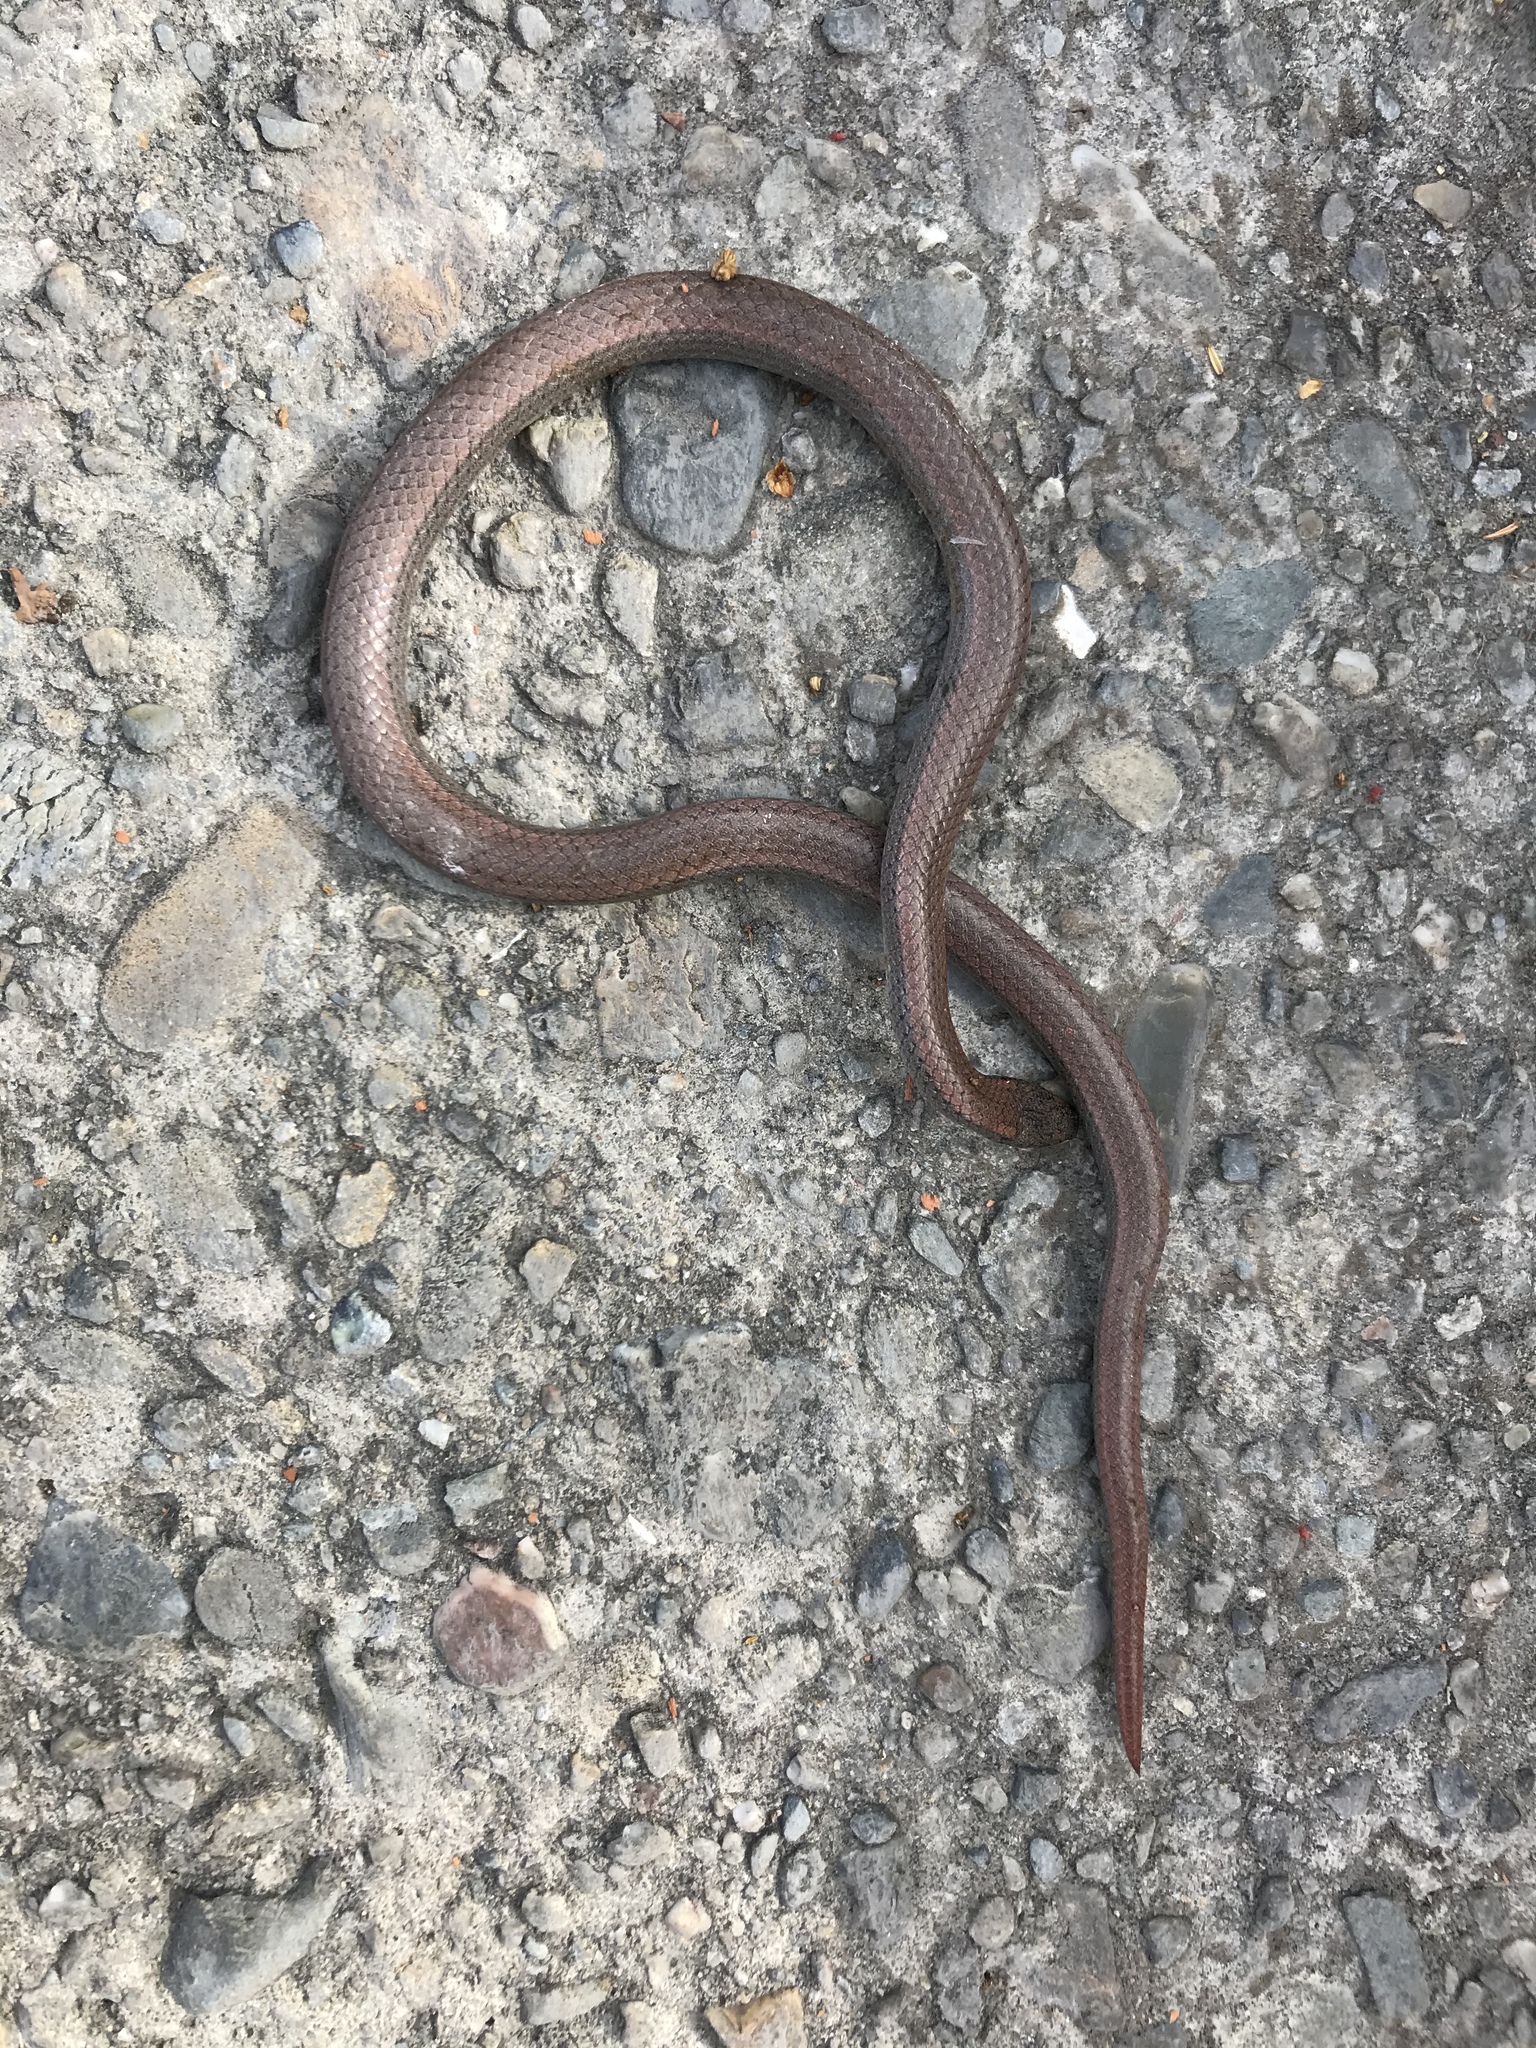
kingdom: Animalia
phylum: Chordata
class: Squamata
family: Colubridae
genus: Contia
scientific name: Contia tenuis
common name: Sharptail snake
